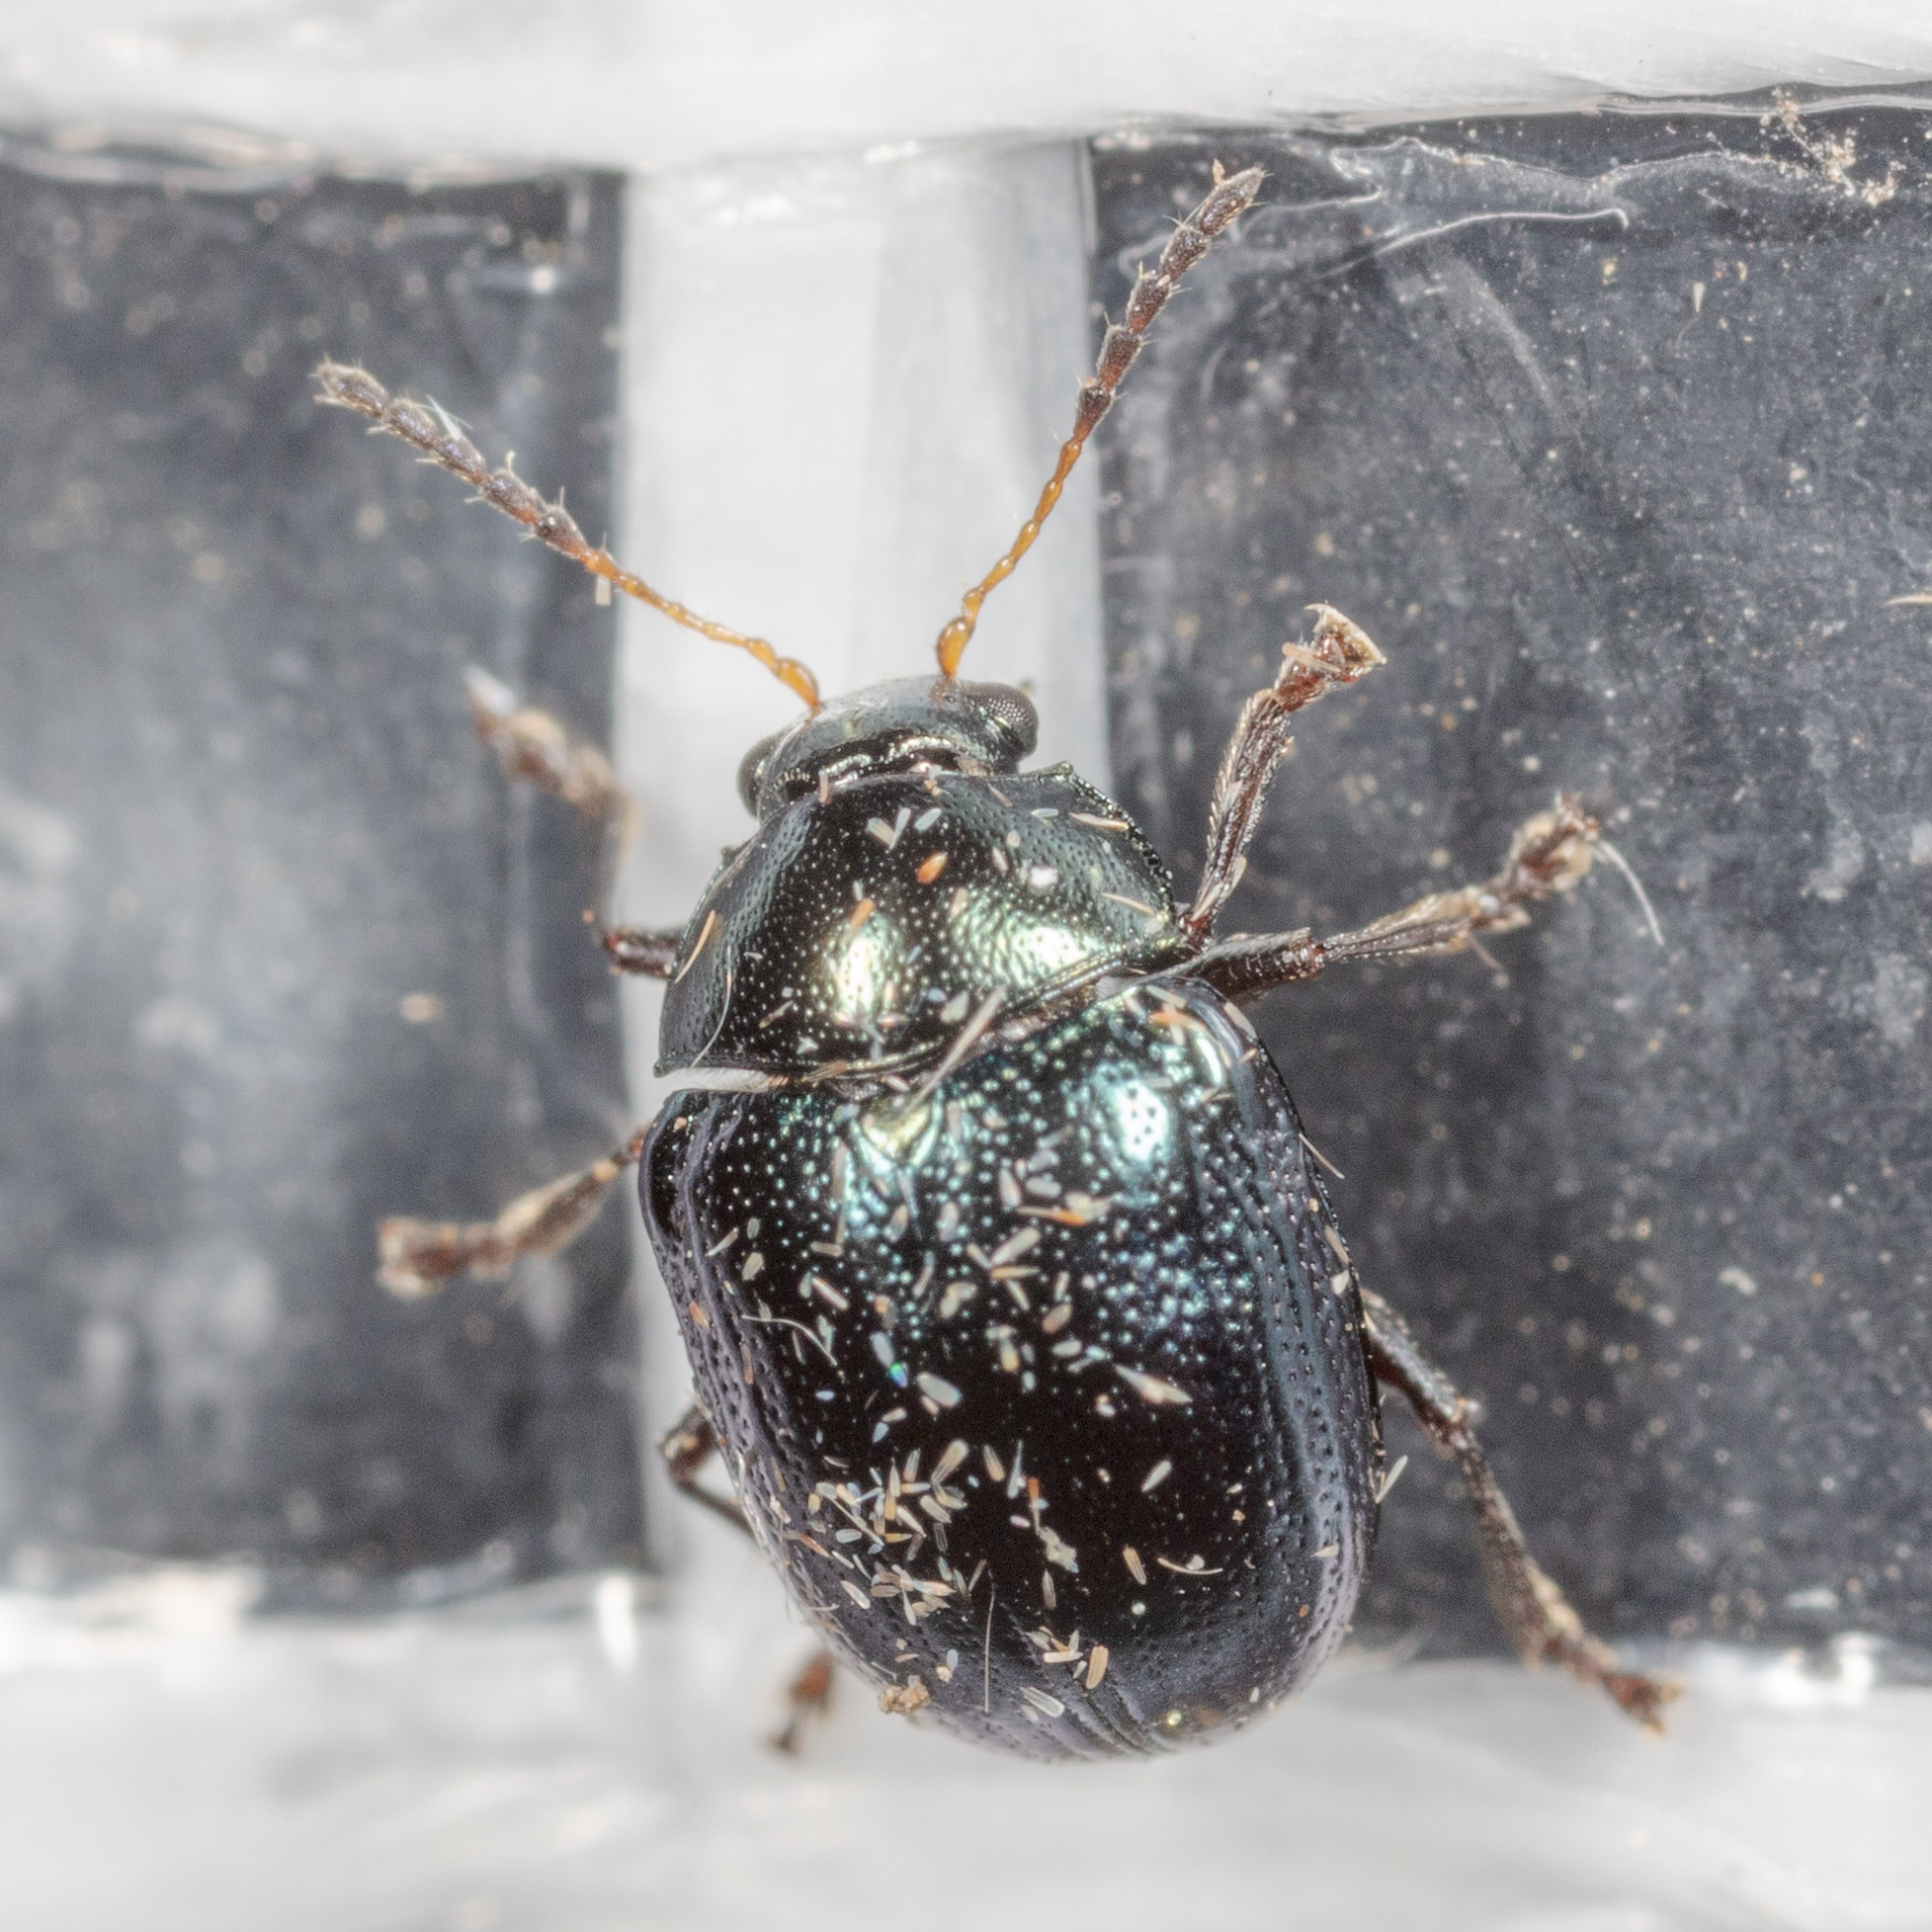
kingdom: Animalia
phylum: Arthropoda
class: Insecta
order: Coleoptera
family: Chrysomelidae
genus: Brachypnoea
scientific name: Brachypnoea lecontei
